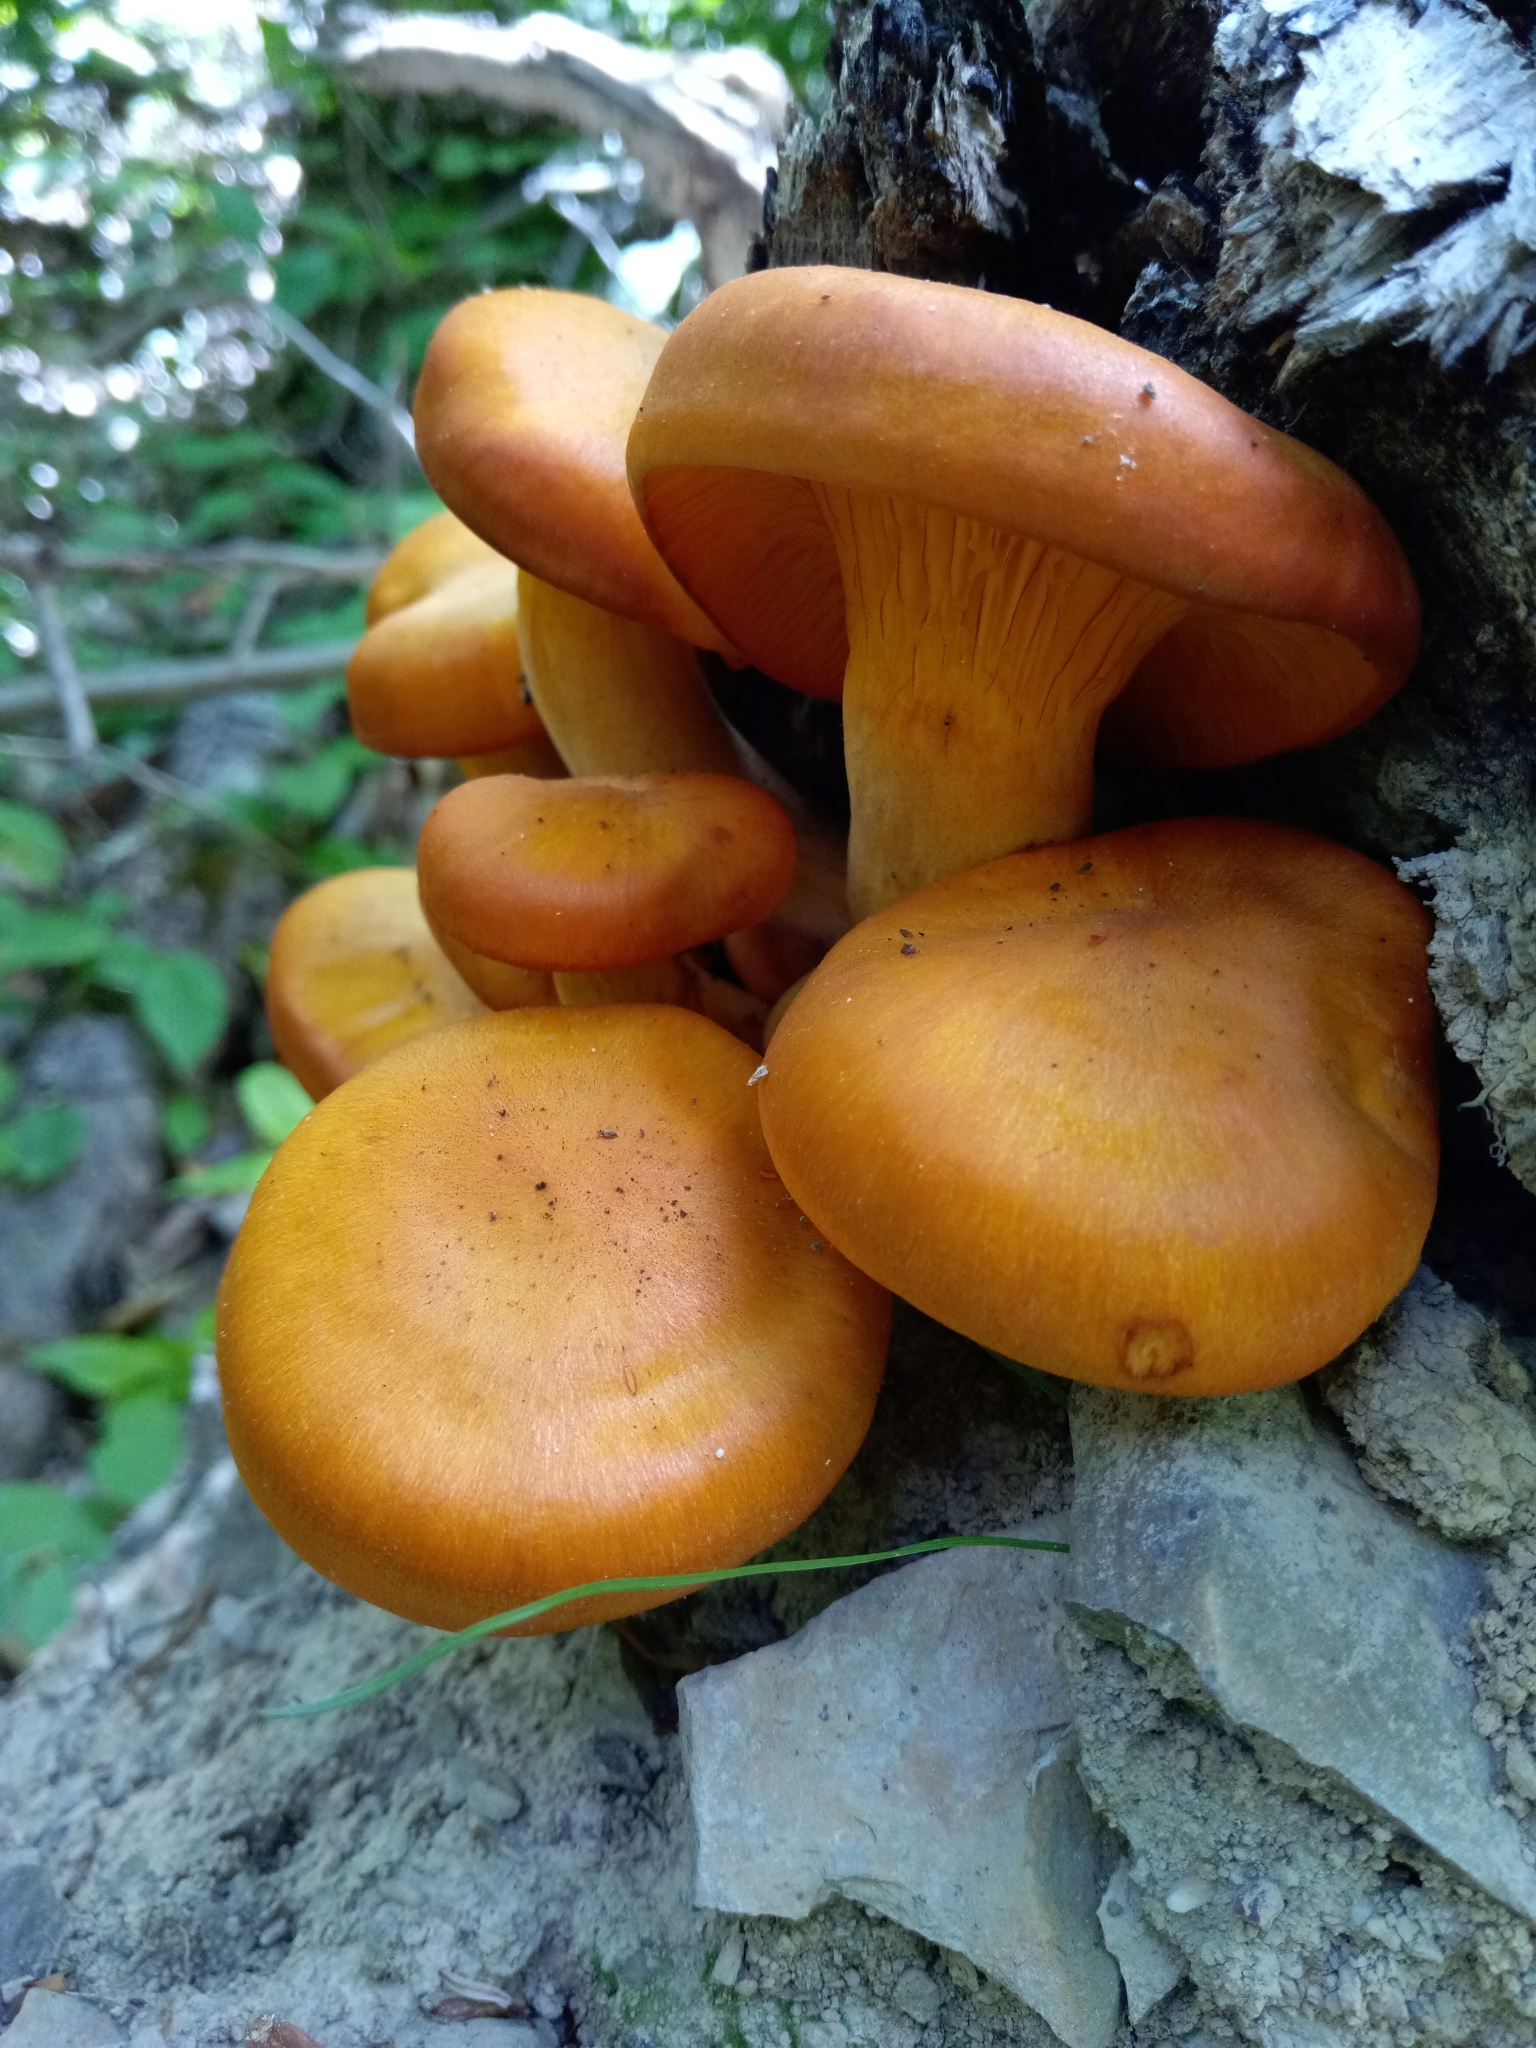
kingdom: Fungi
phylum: Basidiomycota
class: Agaricomycetes
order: Agaricales
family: Omphalotaceae
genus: Omphalotus
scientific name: Omphalotus illudens
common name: Jack o lantern
